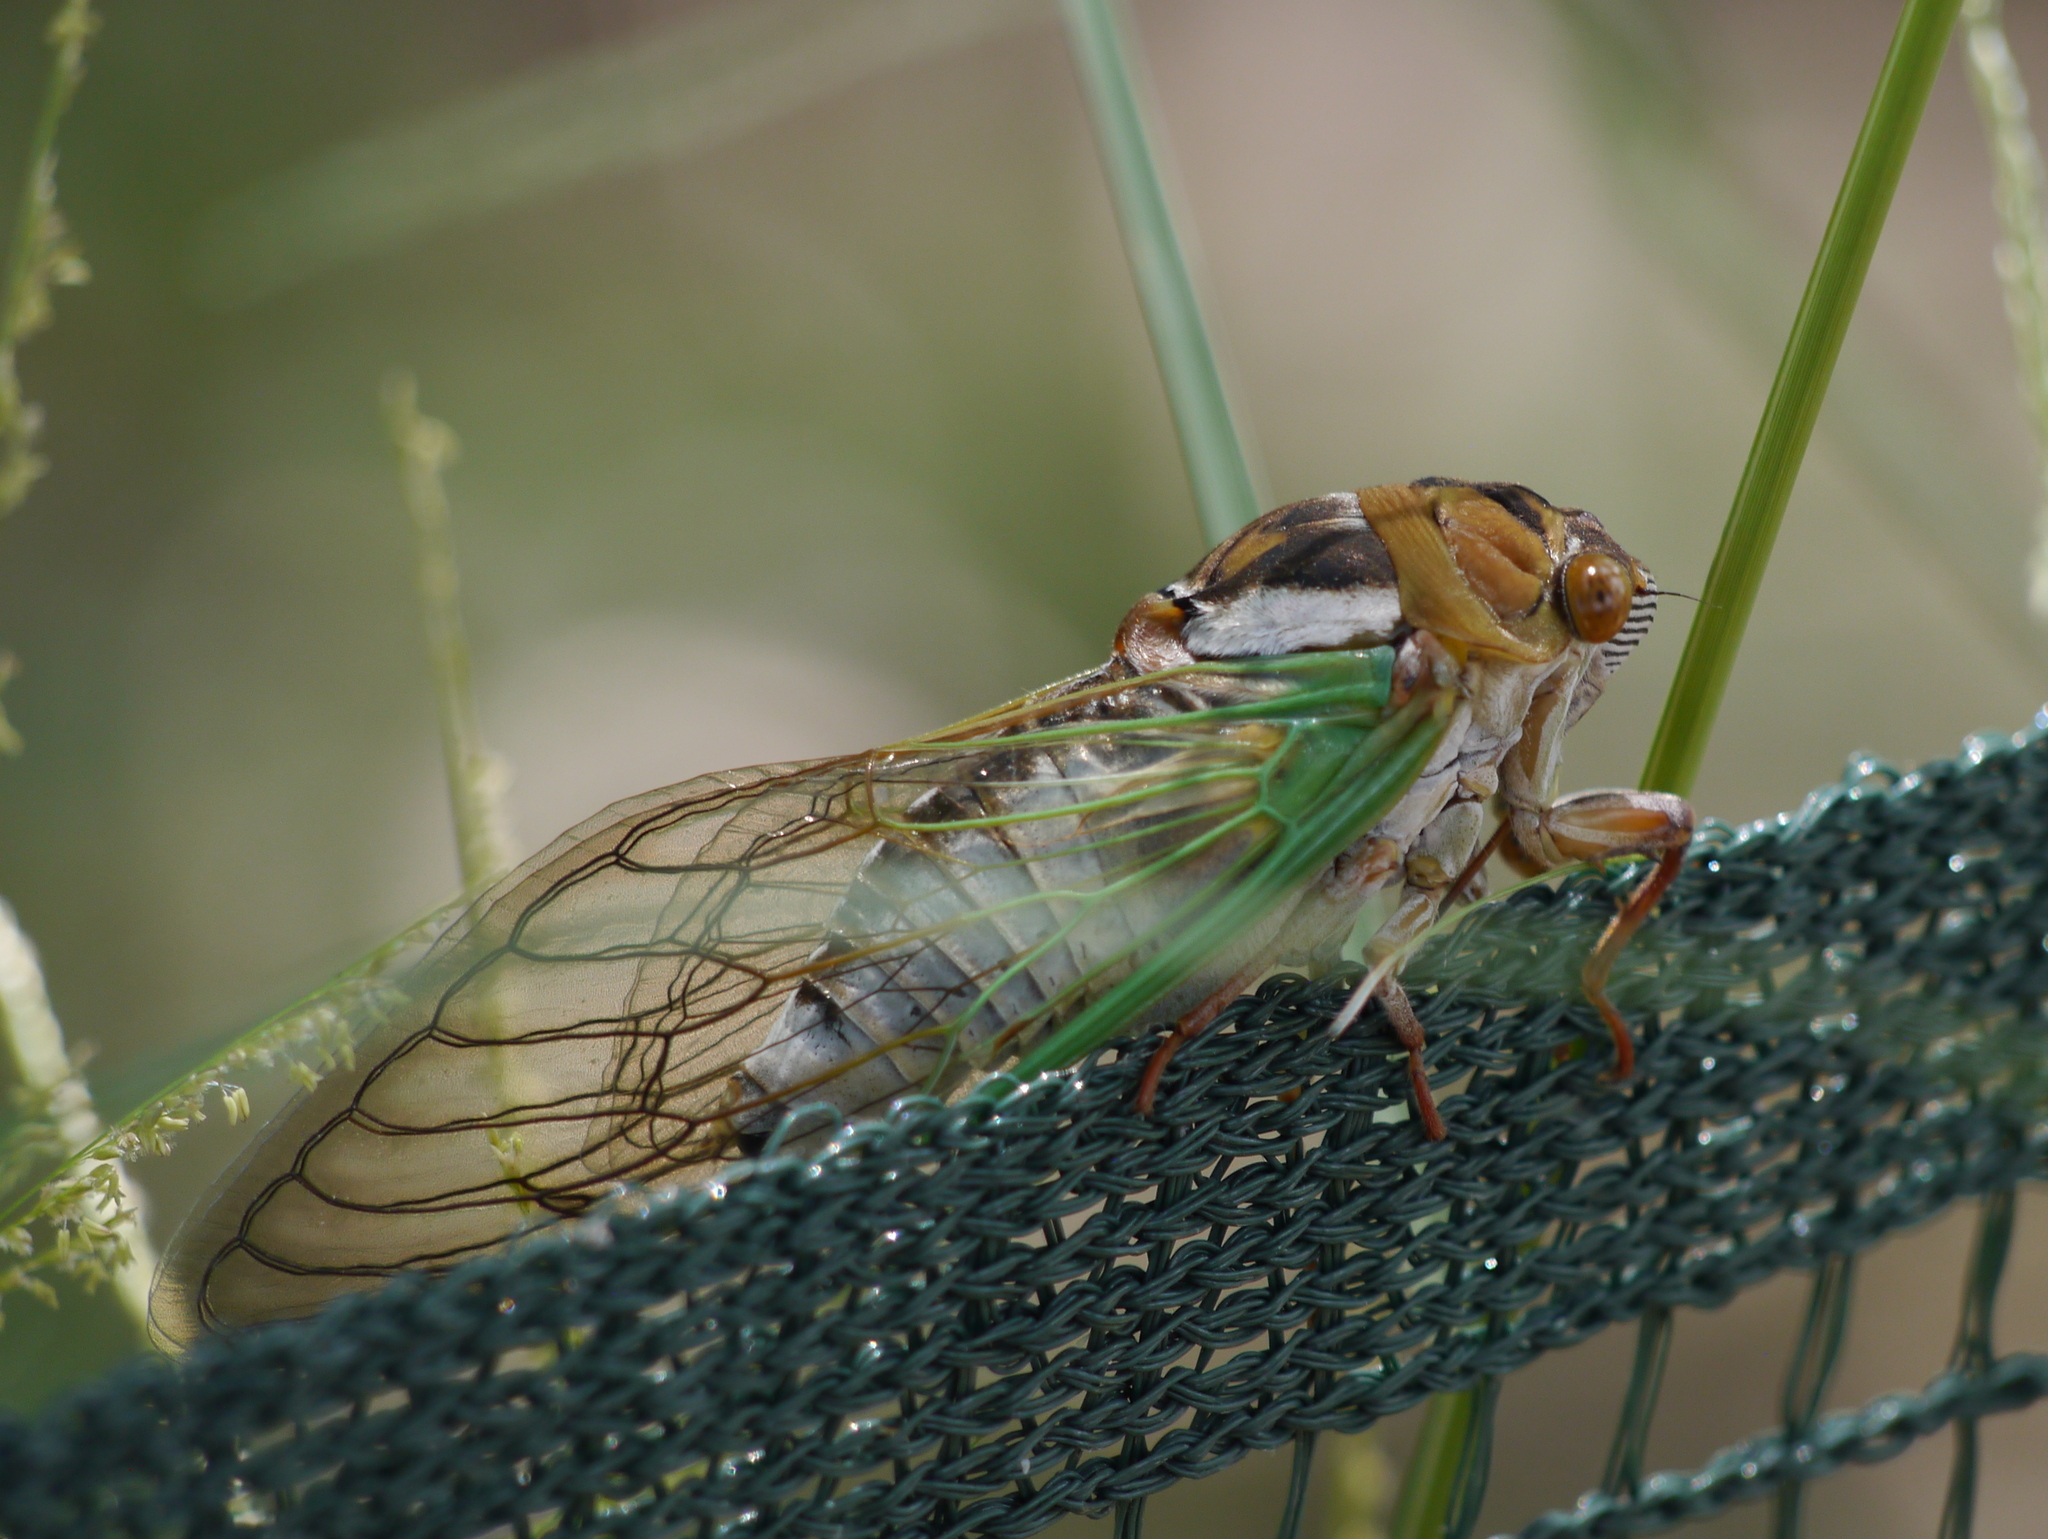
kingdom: Animalia
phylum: Arthropoda
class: Insecta
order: Hemiptera
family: Cicadidae
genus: Megatibicen
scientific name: Megatibicen cultriformis
